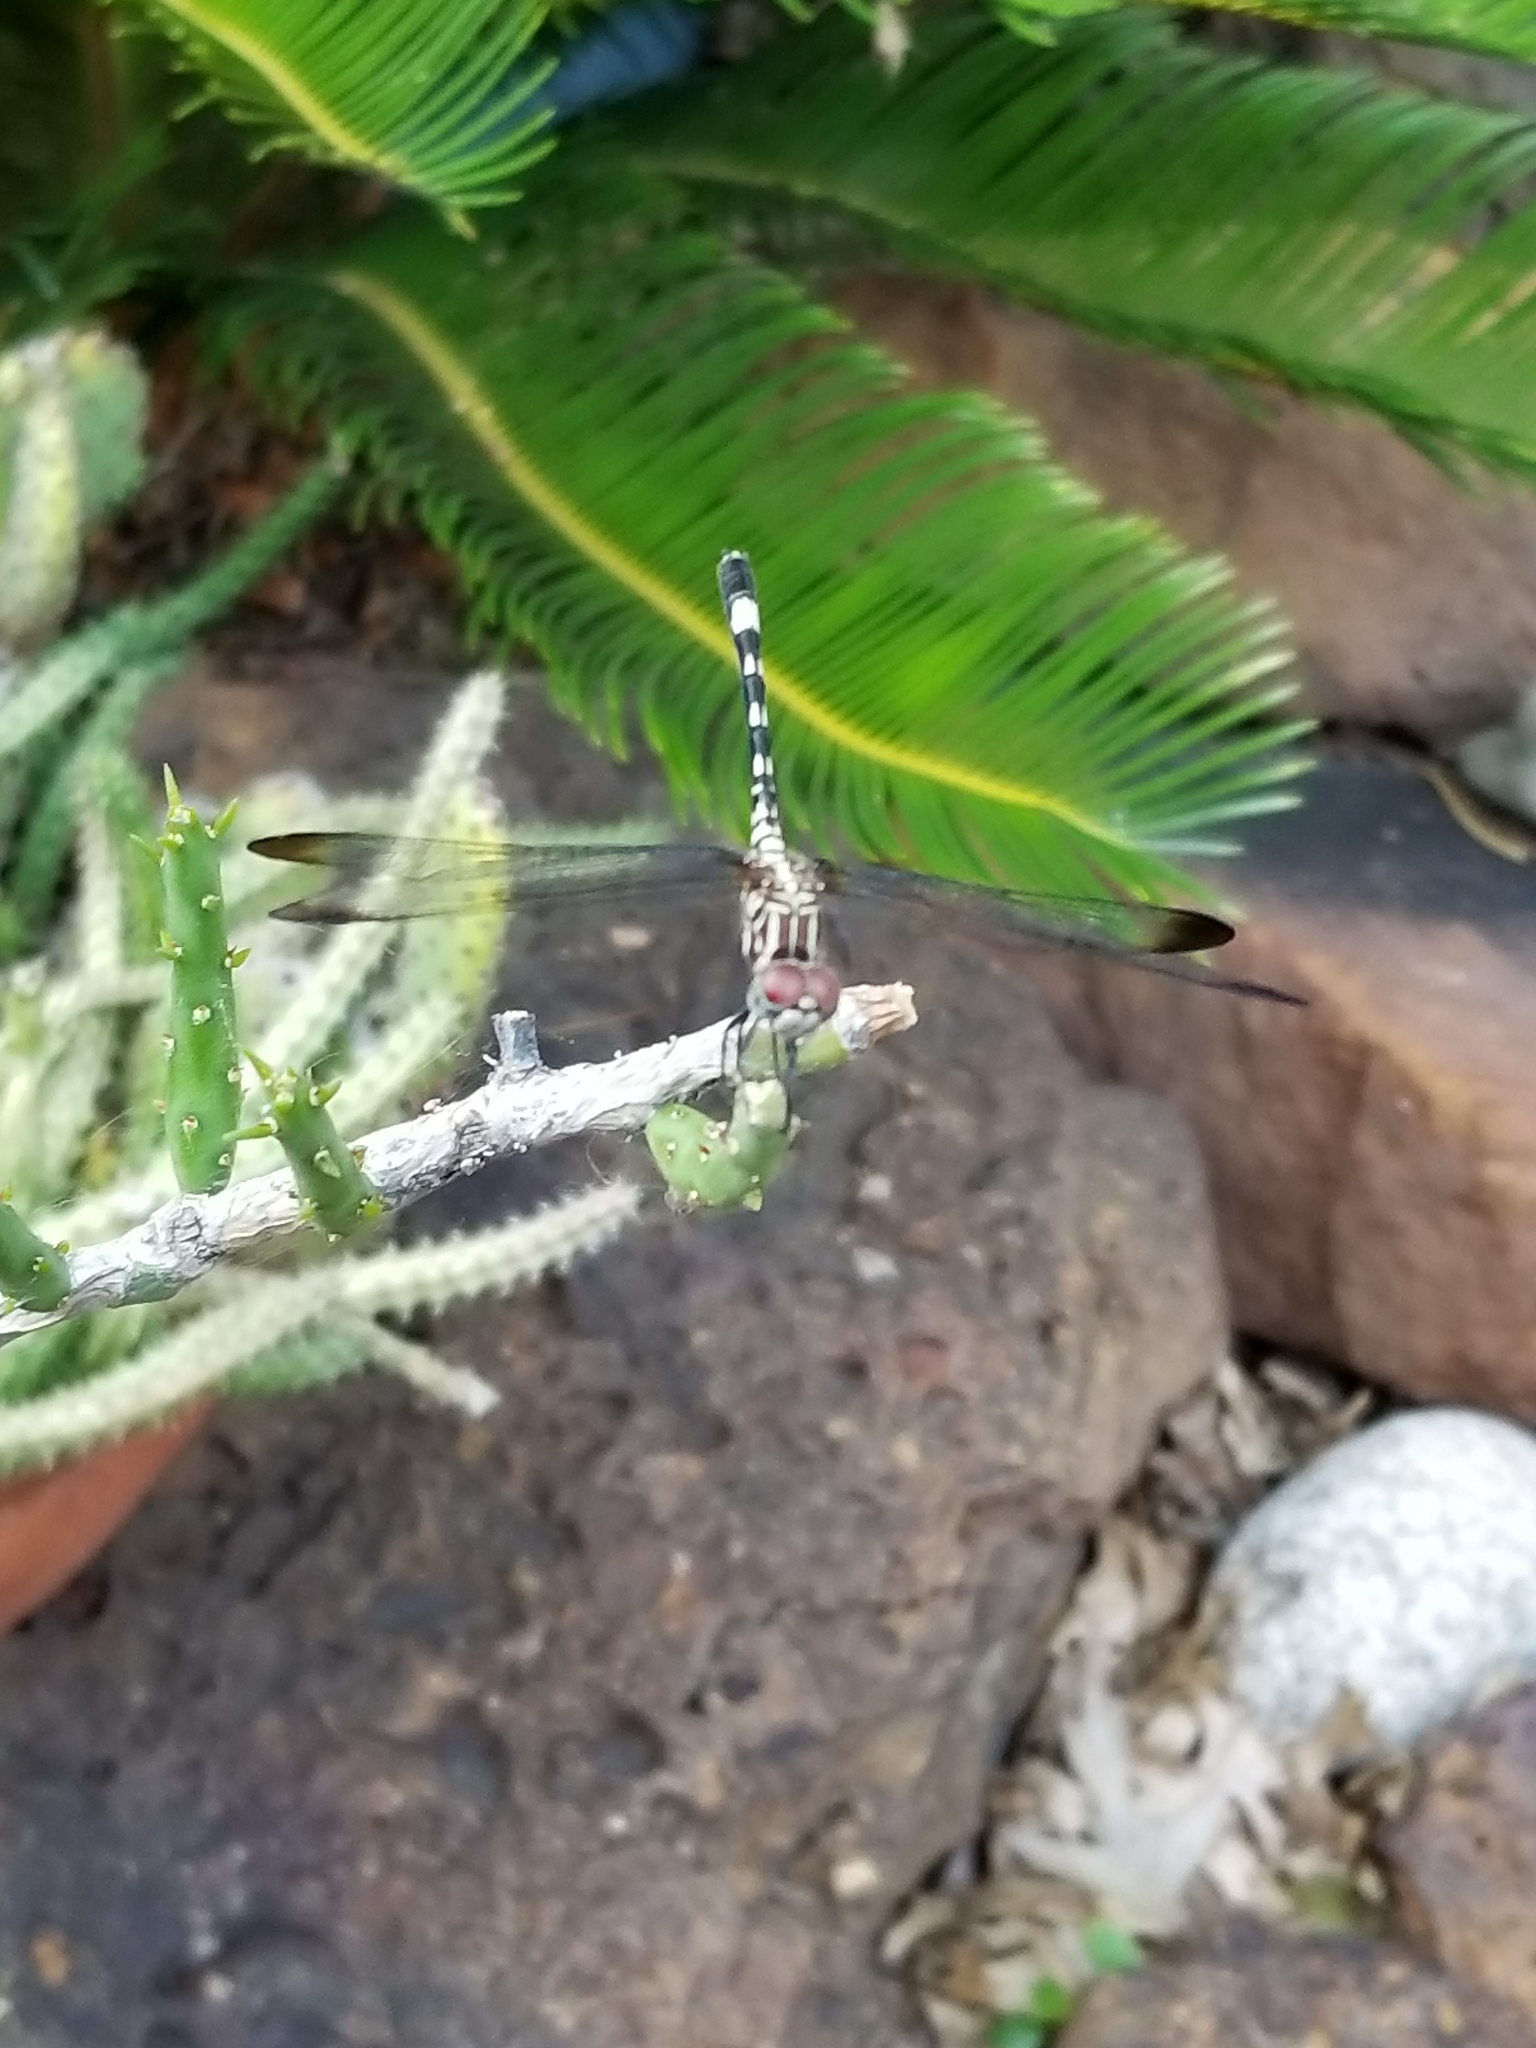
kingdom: Animalia
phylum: Arthropoda
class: Insecta
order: Odonata
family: Libellulidae
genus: Dythemis
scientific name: Dythemis velox
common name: Swift setwing
